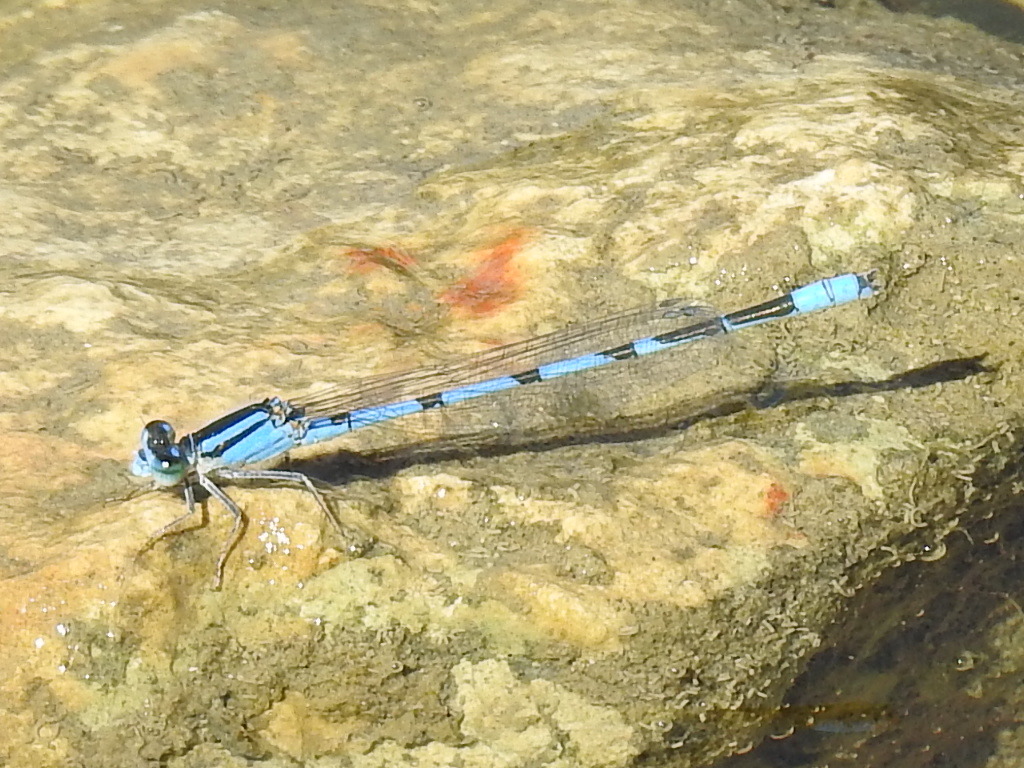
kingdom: Animalia
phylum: Arthropoda
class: Insecta
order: Odonata
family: Coenagrionidae
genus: Enallagma
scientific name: Enallagma civile
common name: Damselfly
